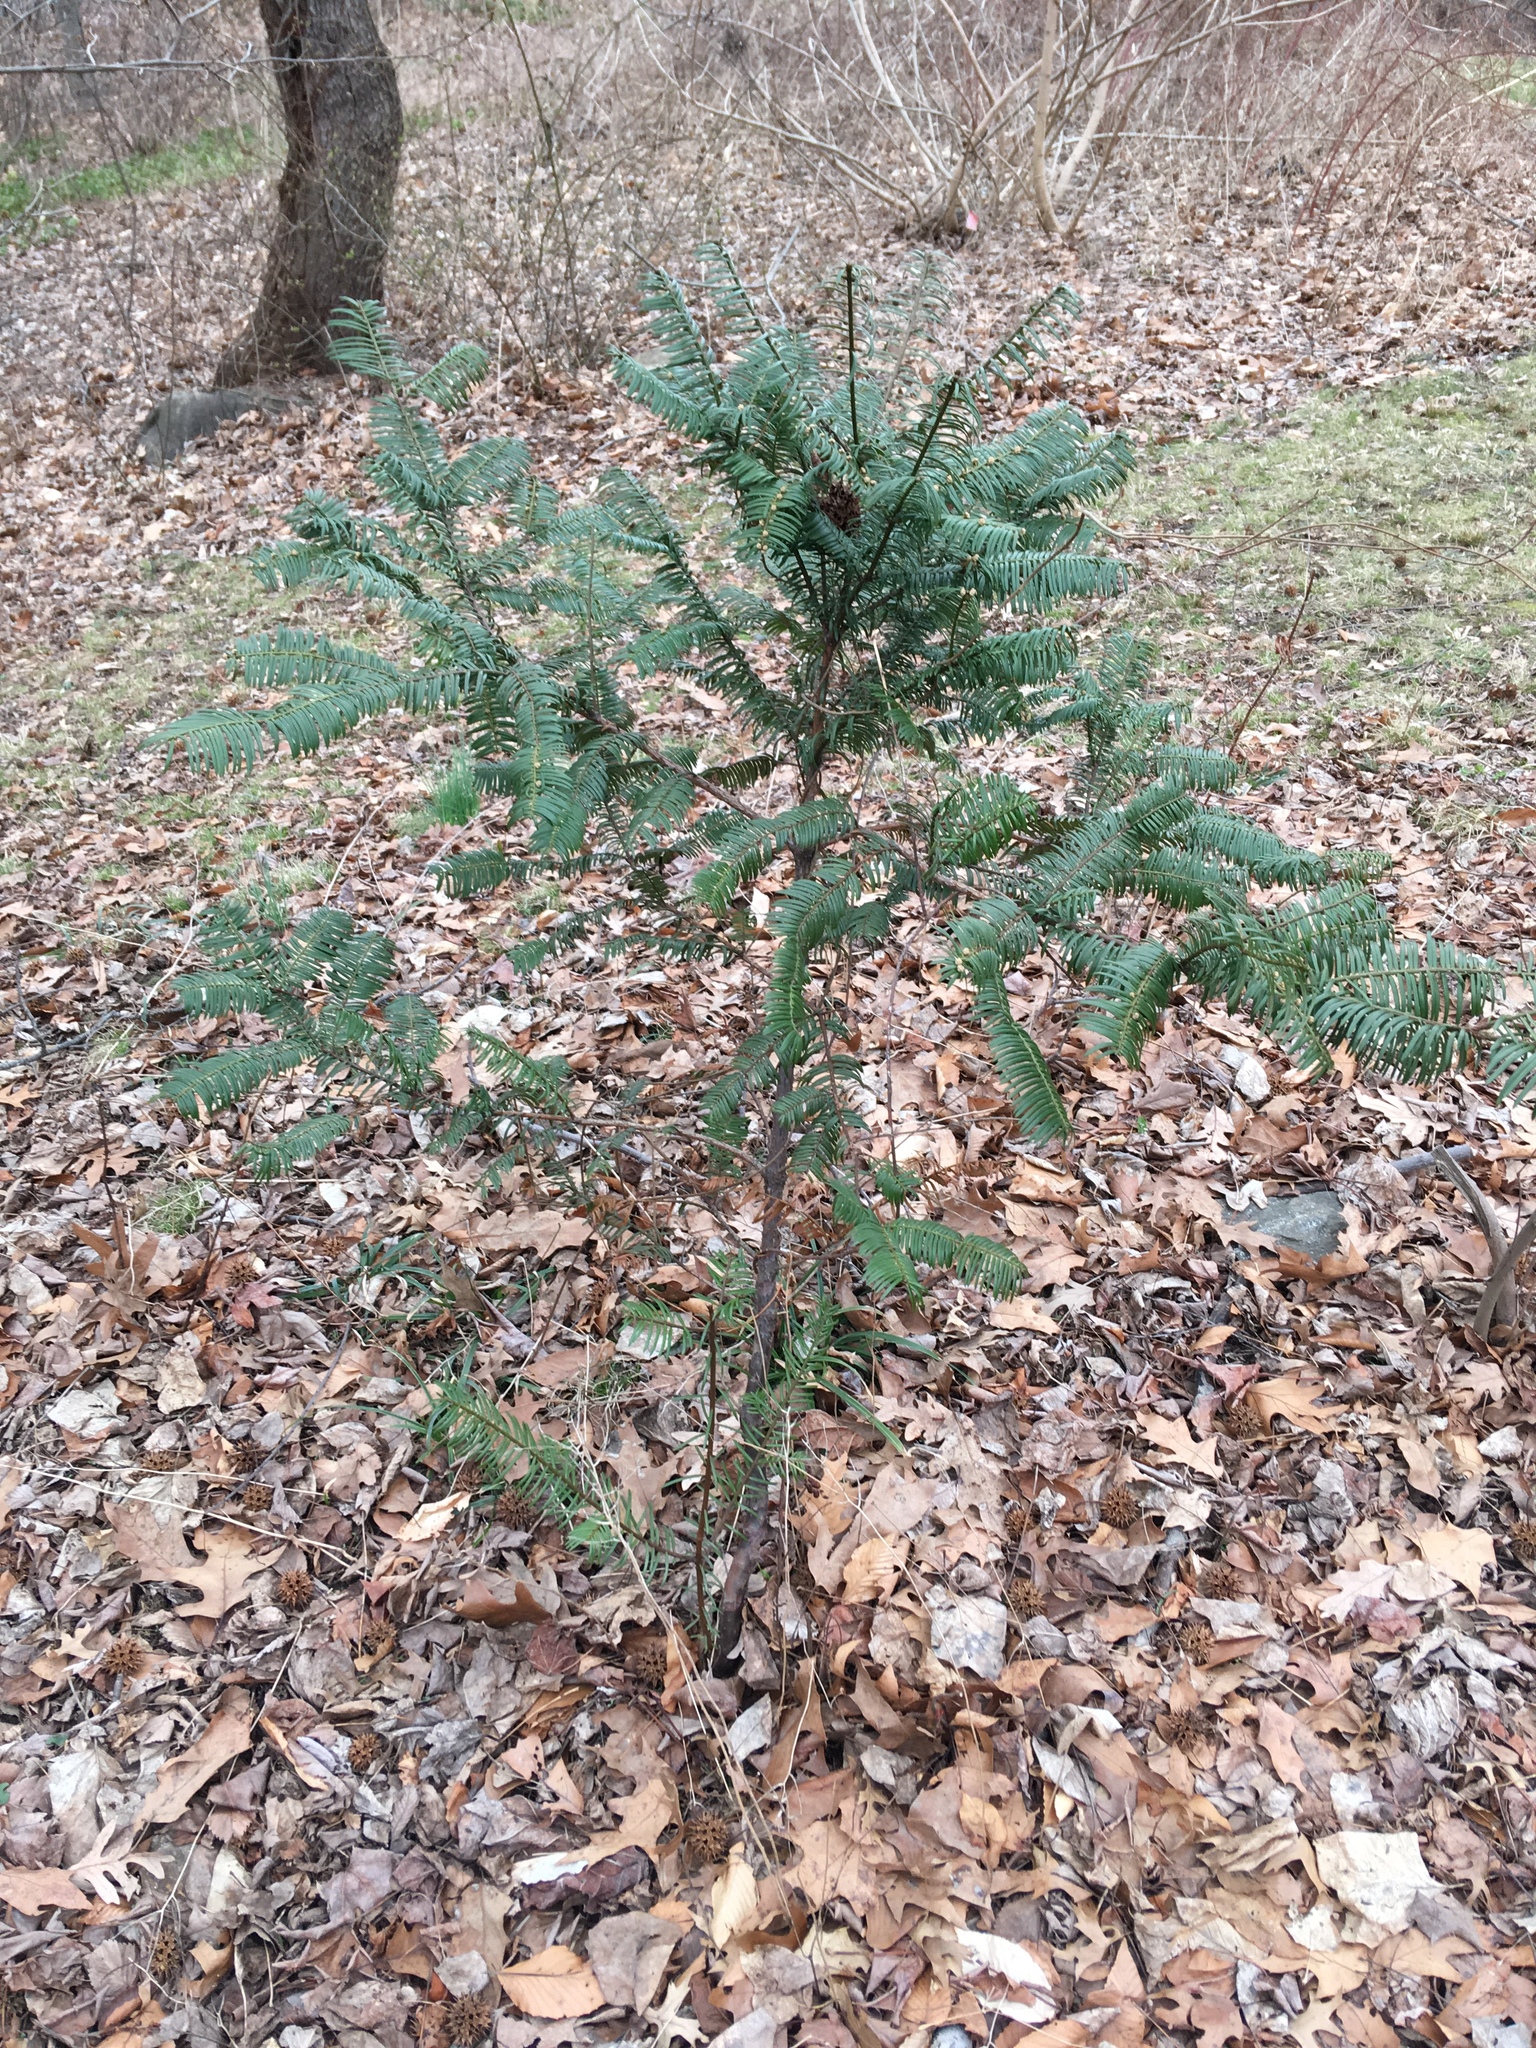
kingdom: Plantae
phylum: Tracheophyta
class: Pinopsida
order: Pinales
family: Cephalotaxaceae
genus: Cephalotaxus
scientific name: Cephalotaxus harringtonia
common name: Japanese plum-yew
